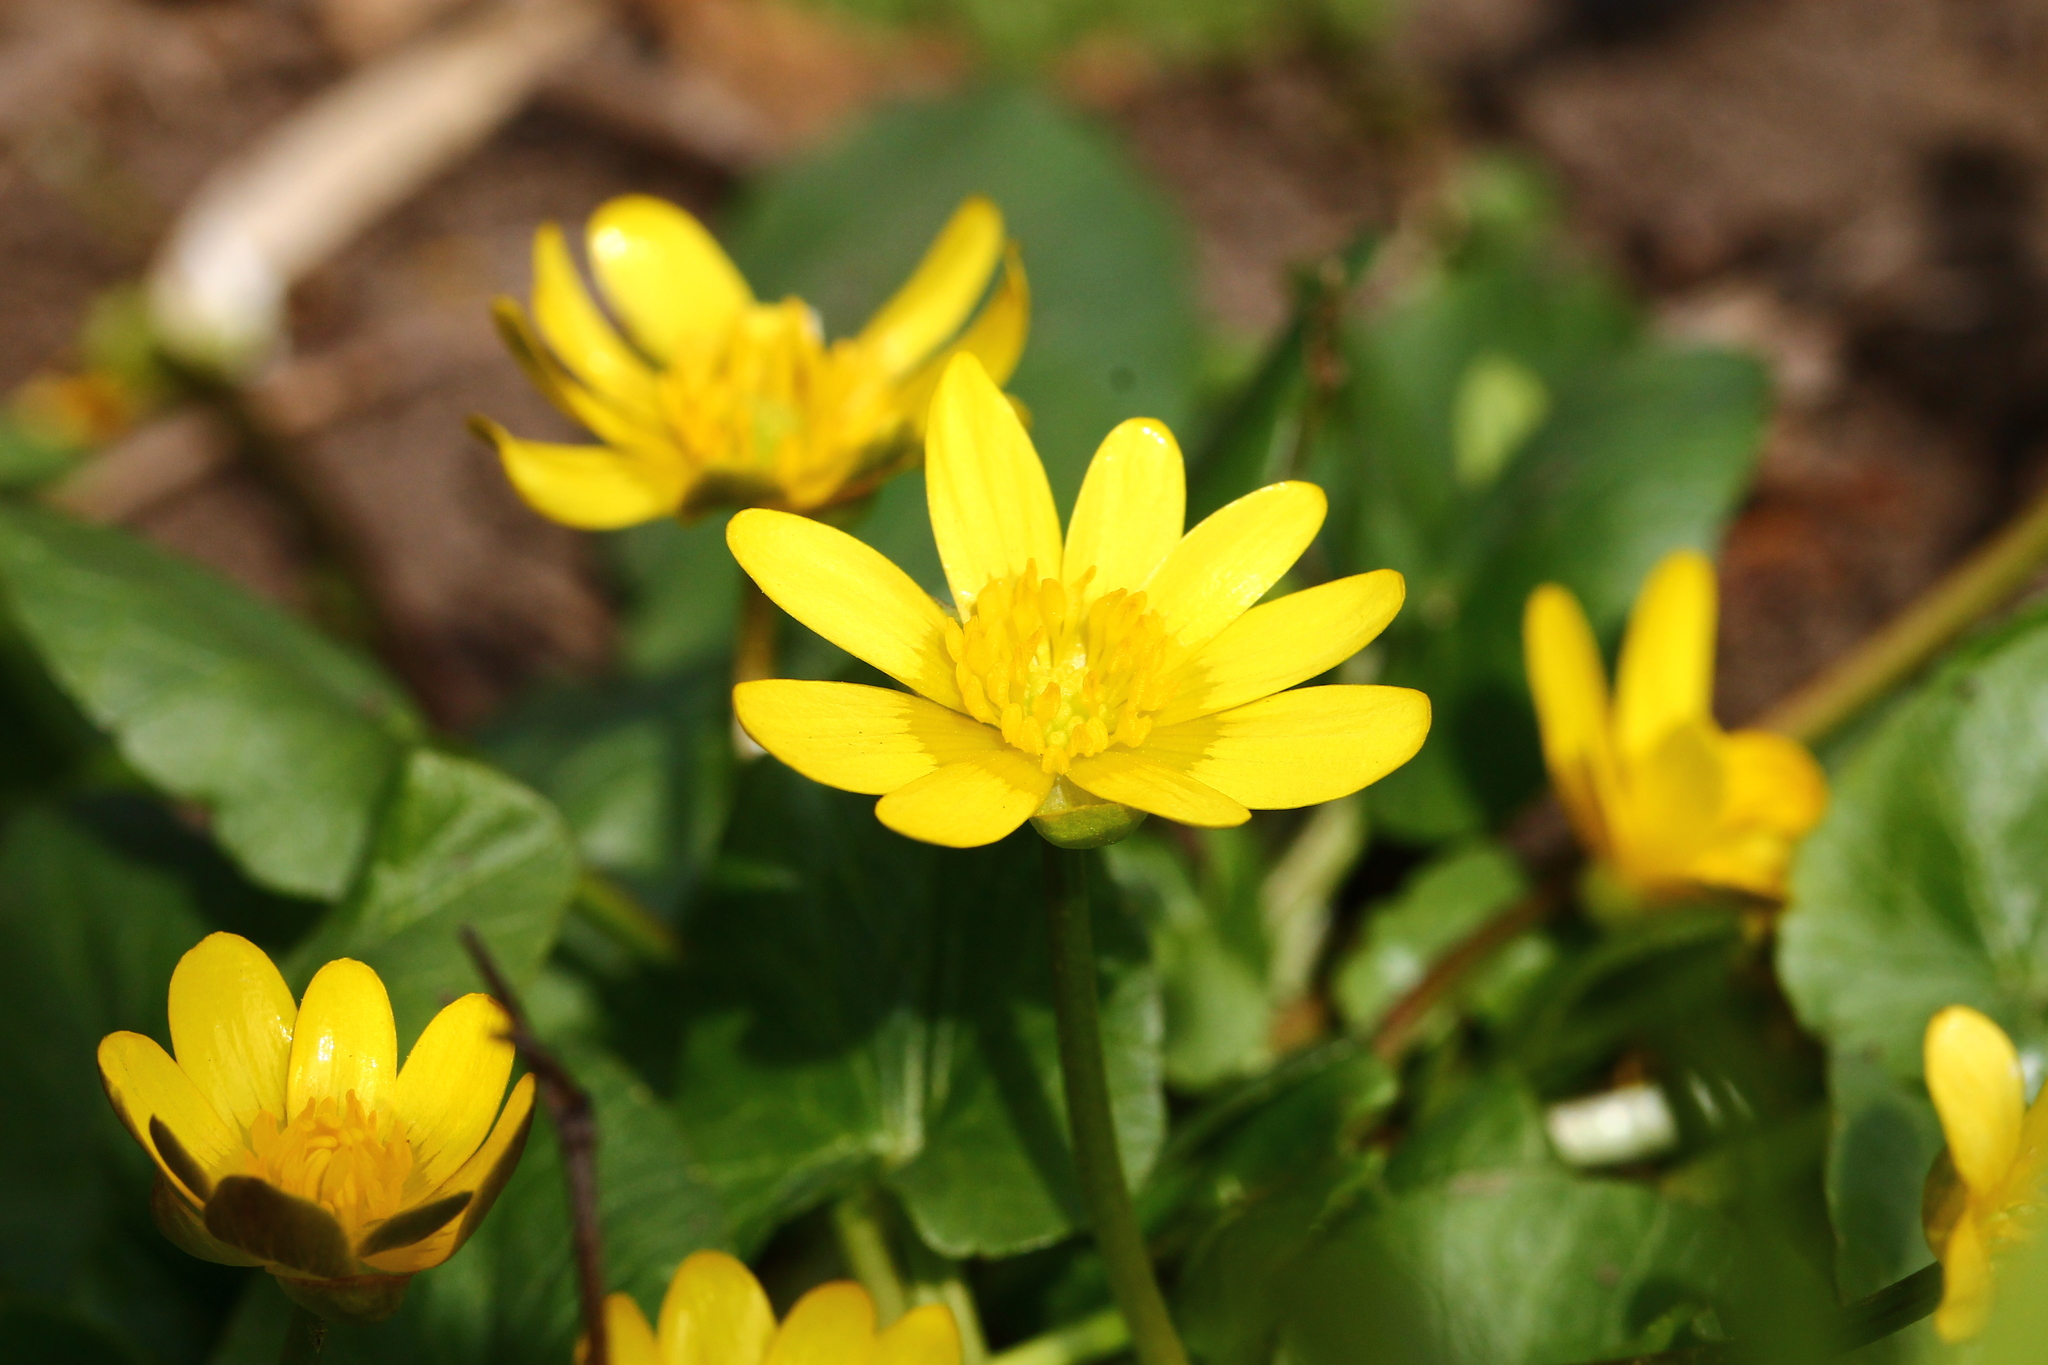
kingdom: Plantae
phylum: Tracheophyta
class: Magnoliopsida
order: Ranunculales
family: Ranunculaceae
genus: Ficaria
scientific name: Ficaria verna
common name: Lesser celandine
